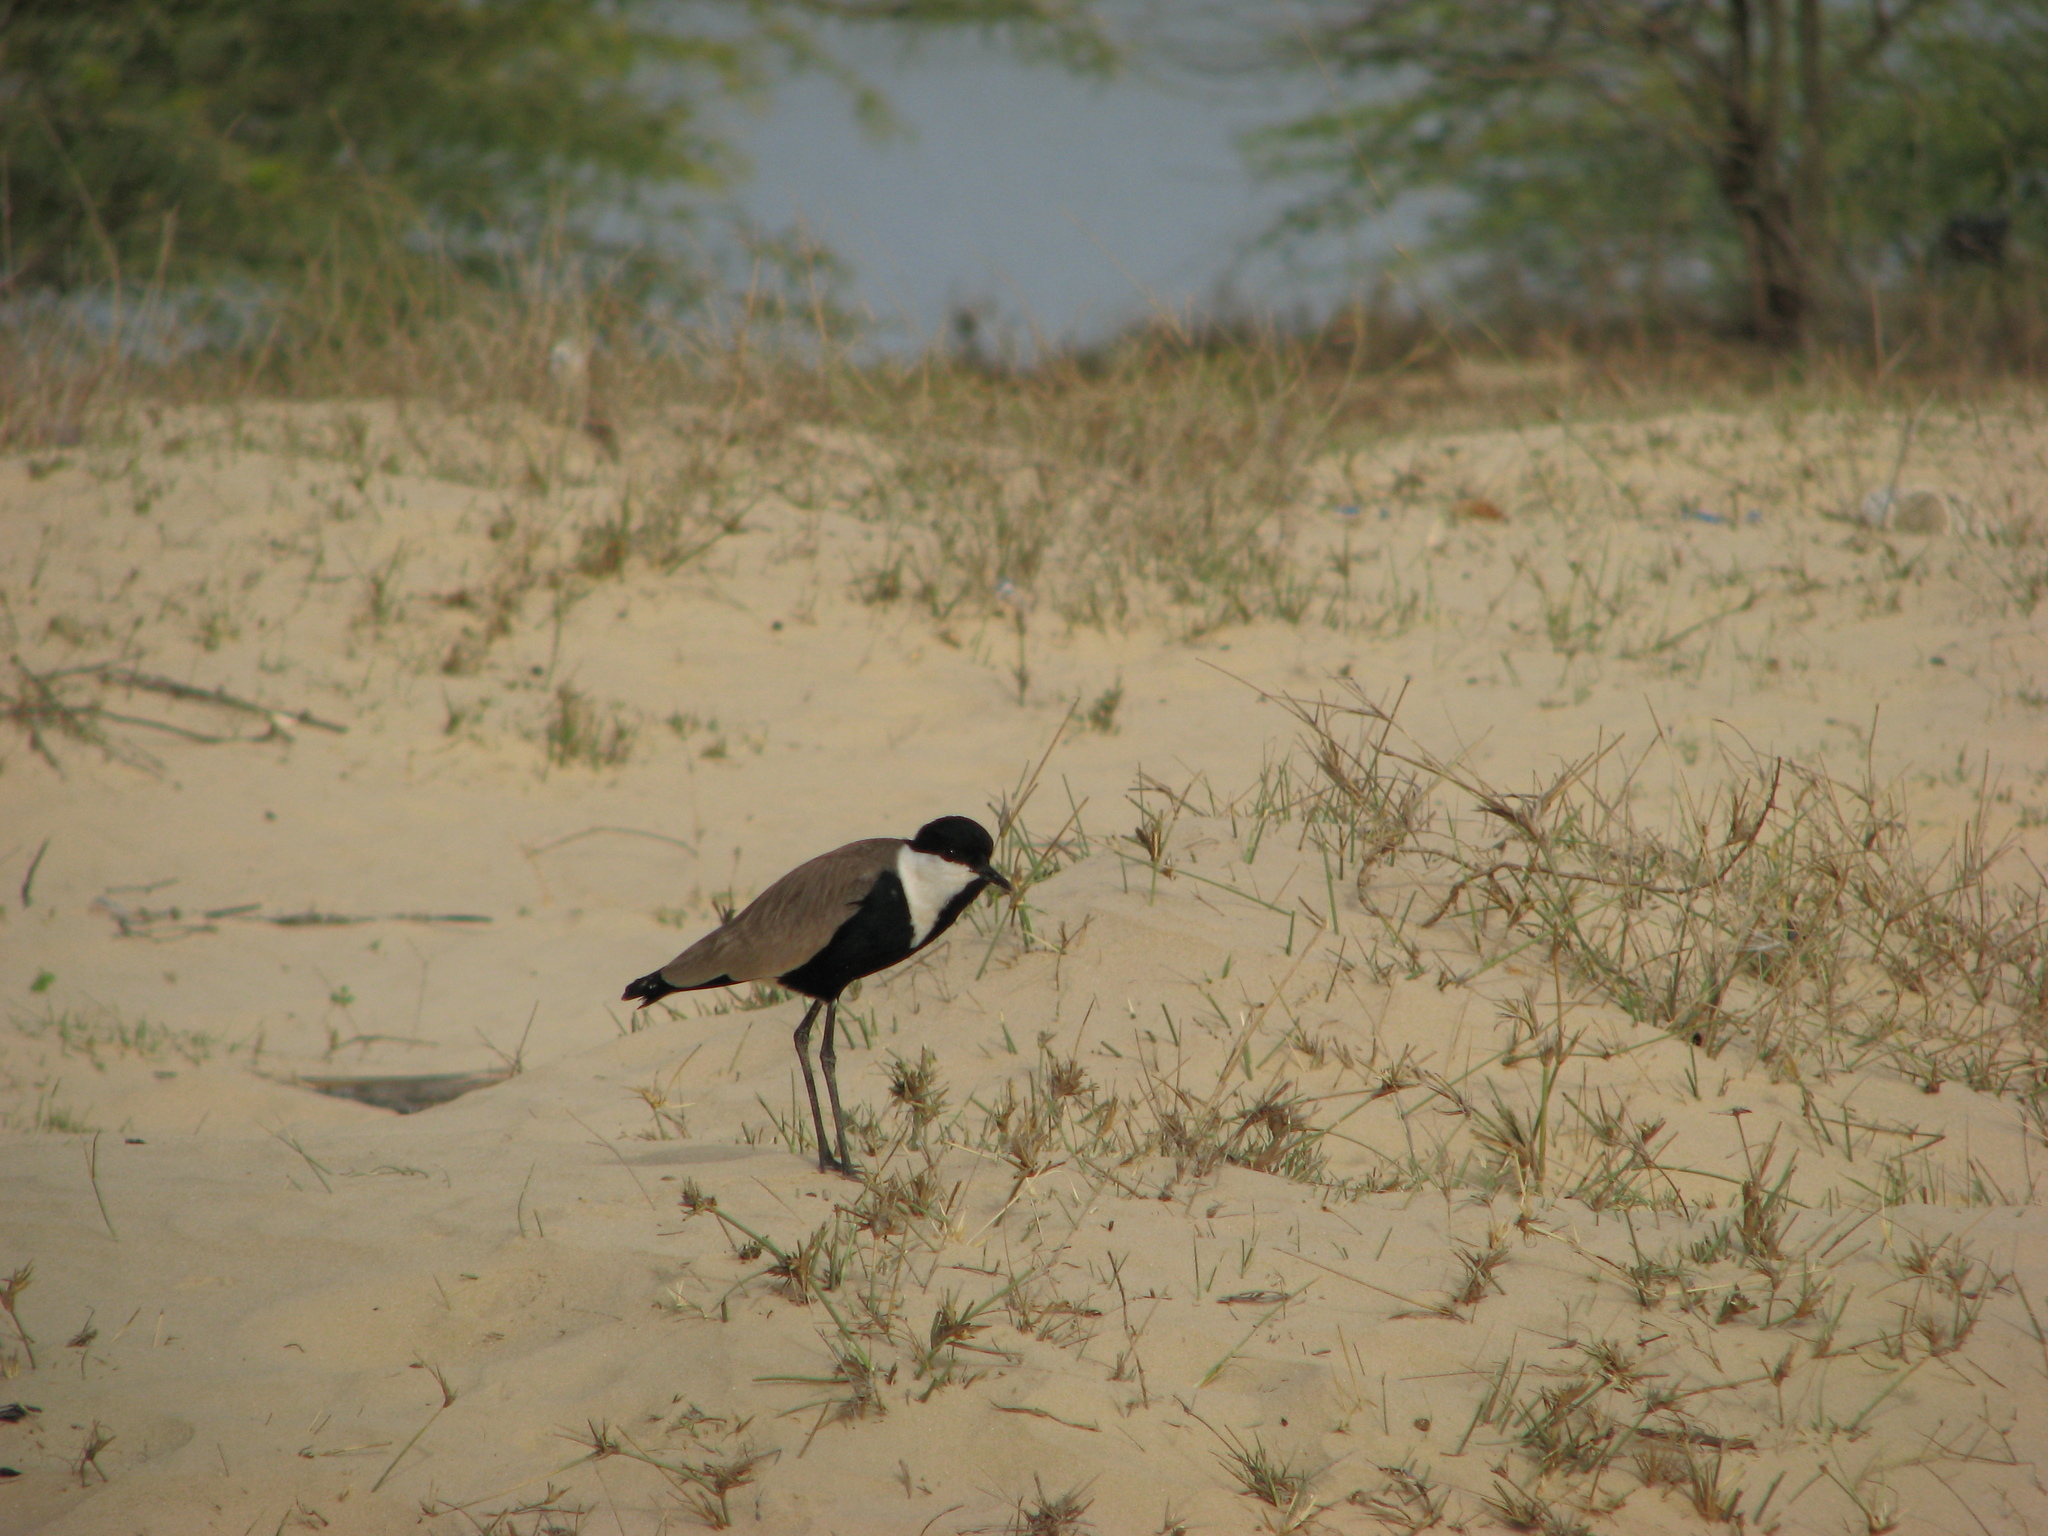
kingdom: Animalia
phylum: Chordata
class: Aves
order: Charadriiformes
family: Charadriidae
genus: Vanellus
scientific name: Vanellus spinosus
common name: Spur-winged lapwing
